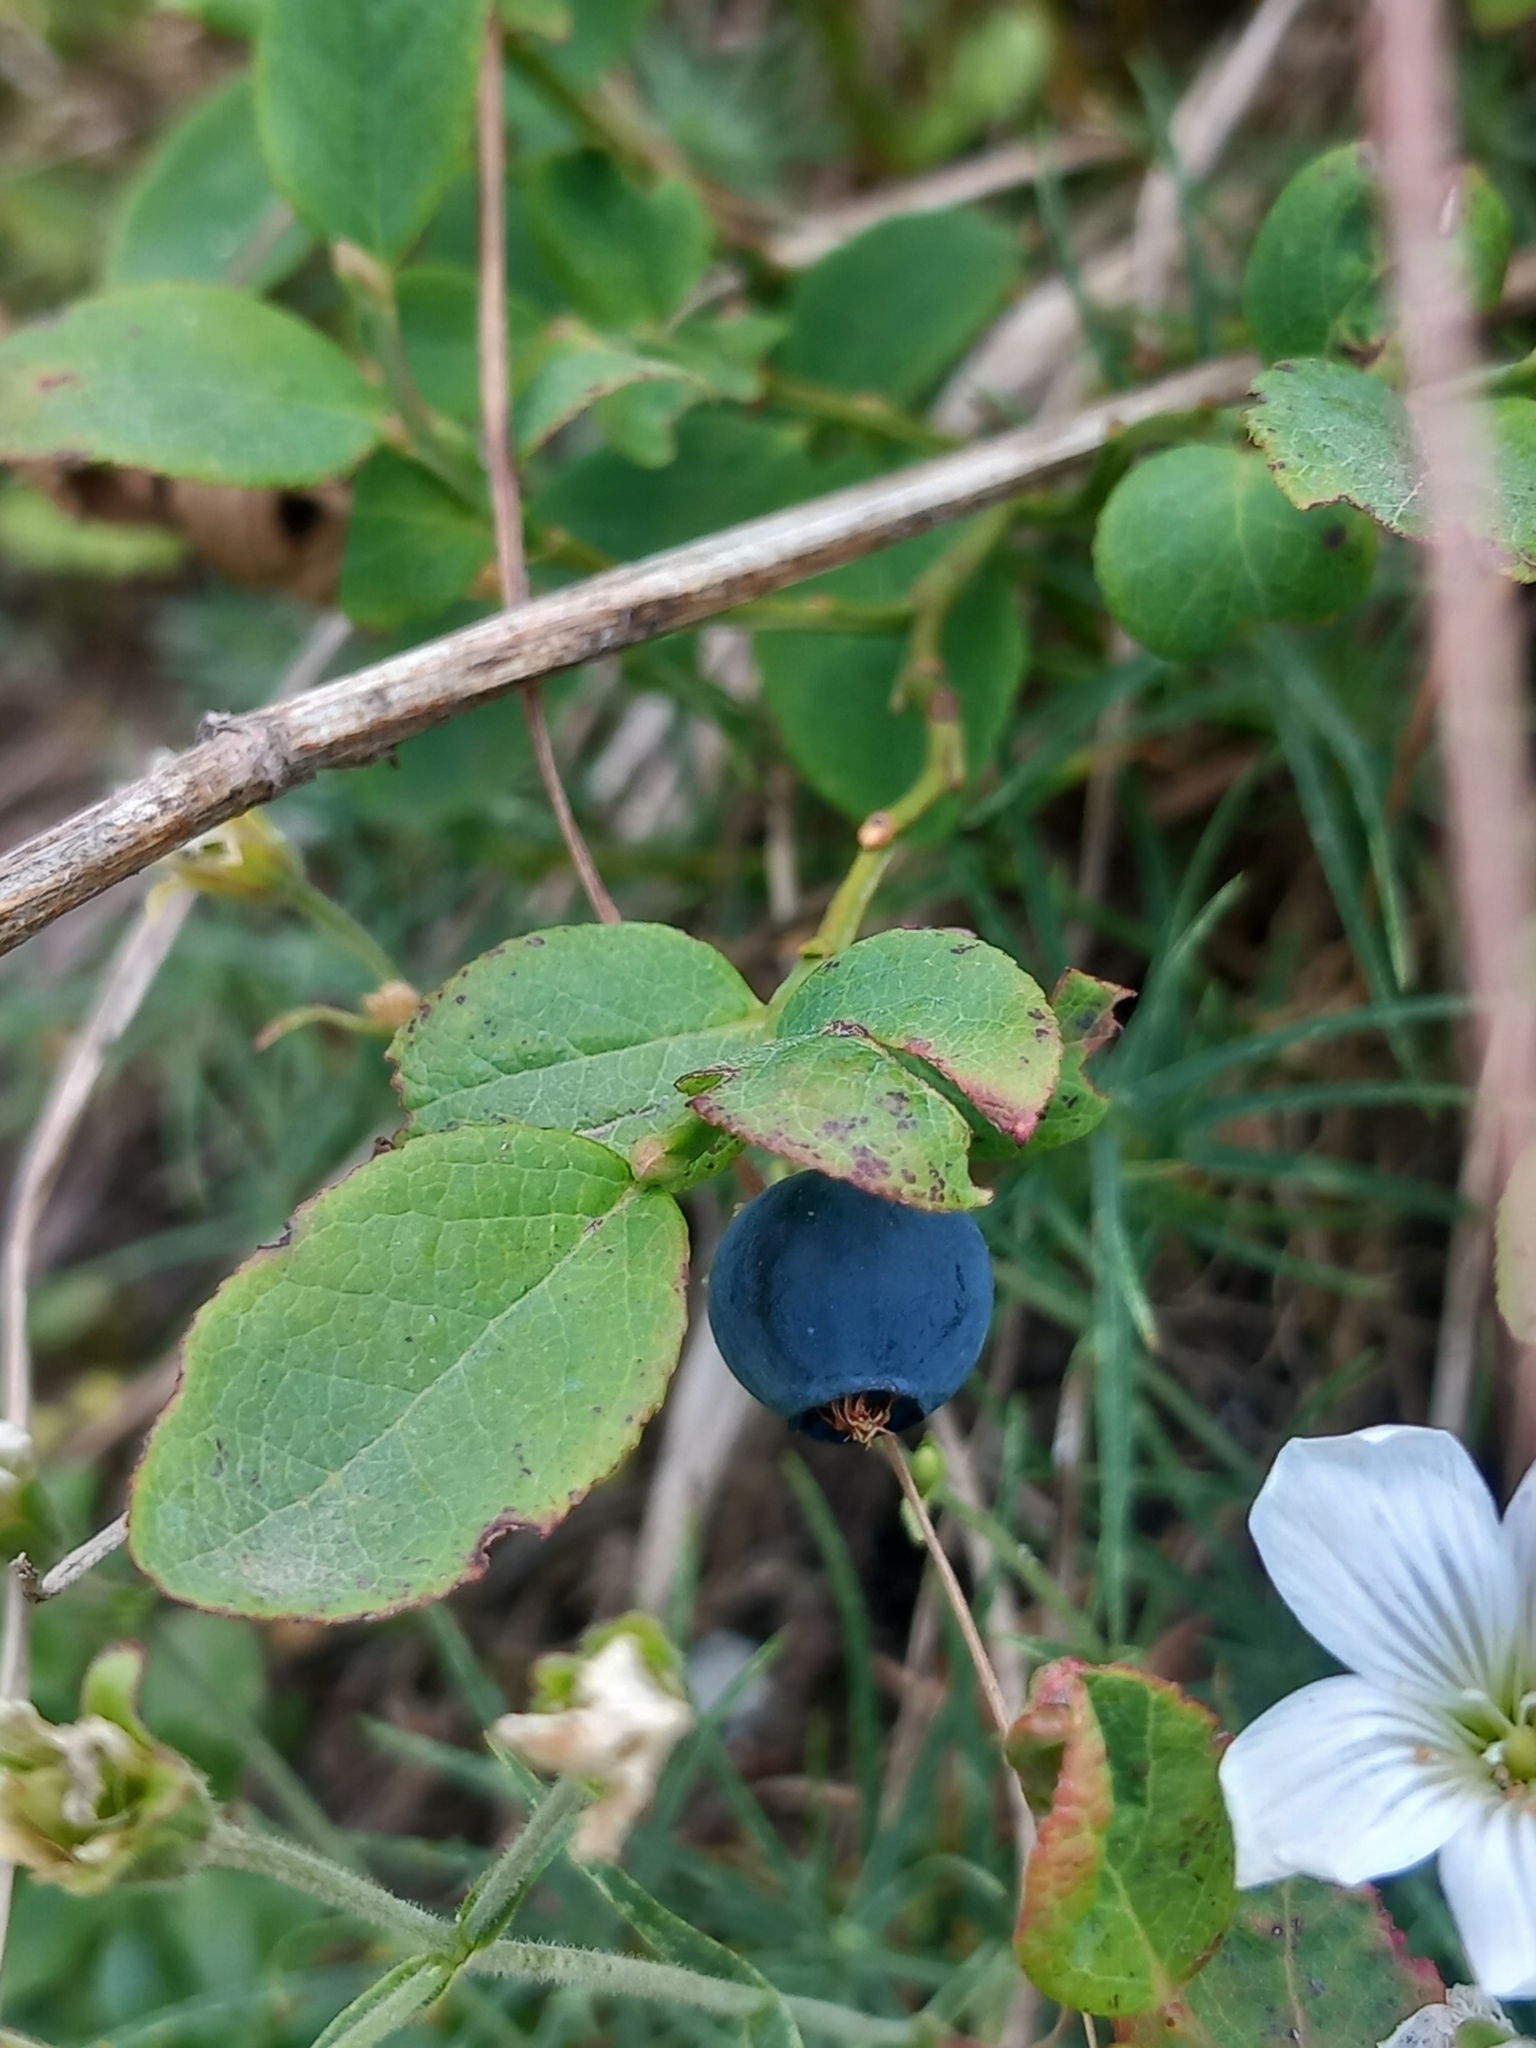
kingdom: Plantae
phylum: Tracheophyta
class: Magnoliopsida
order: Ericales
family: Ericaceae
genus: Vaccinium
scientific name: Vaccinium myrtillus
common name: Bilberry
